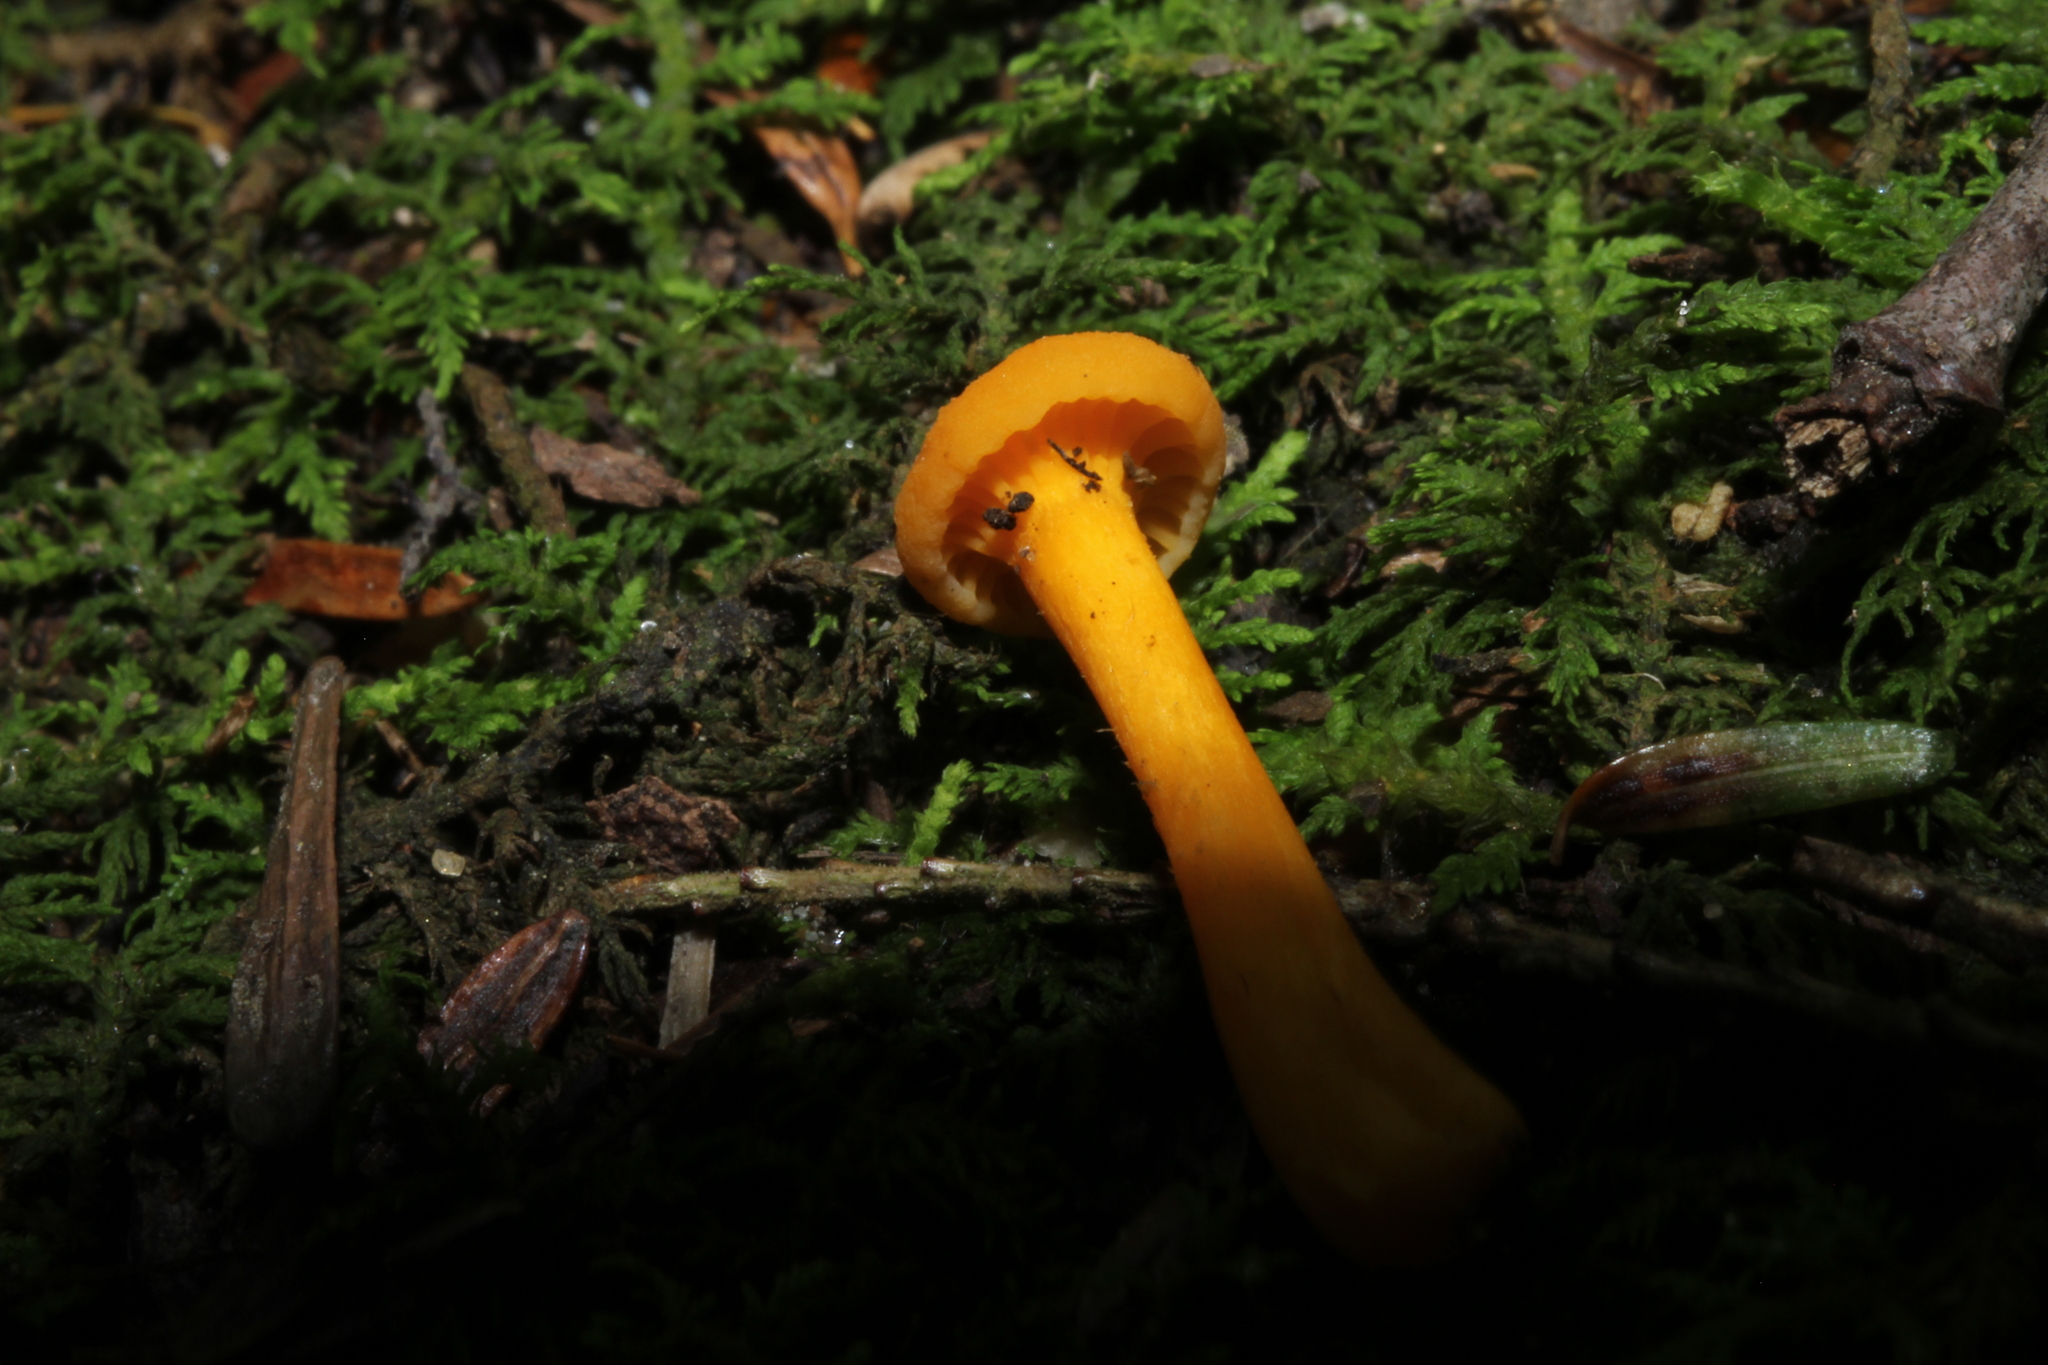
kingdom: Fungi
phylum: Basidiomycota
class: Agaricomycetes
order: Cantharellales
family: Hydnaceae
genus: Cantharellus
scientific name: Cantharellus minor
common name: Small chanterelle
